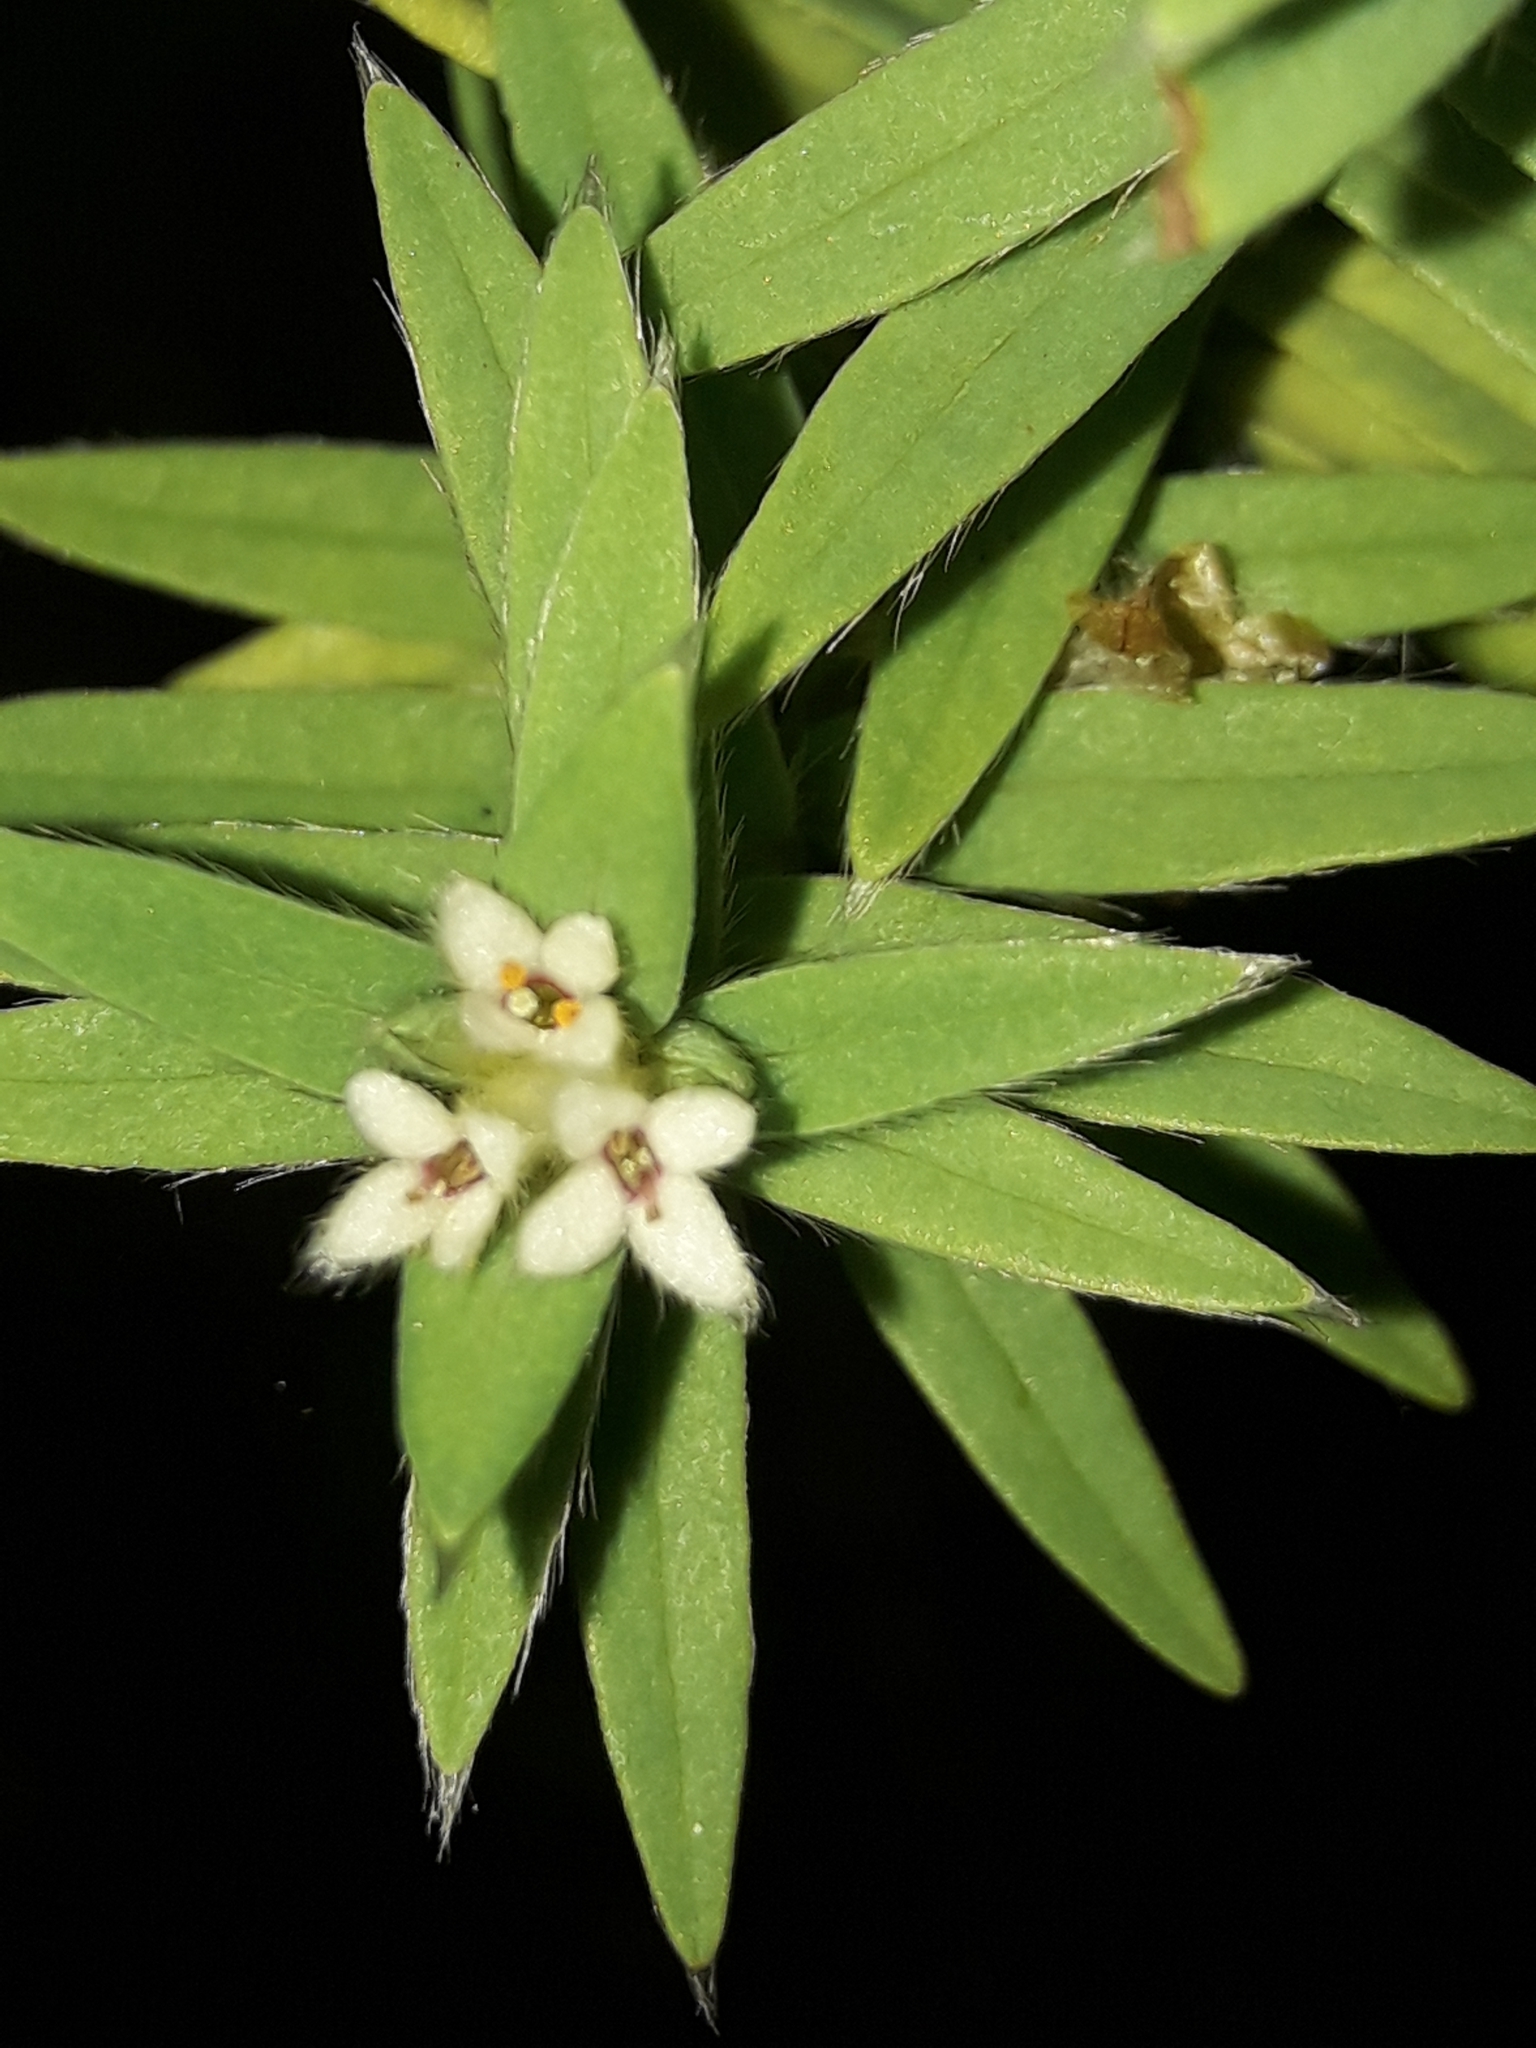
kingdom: Plantae
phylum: Tracheophyta
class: Magnoliopsida
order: Malvales
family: Thymelaeaceae
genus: Pimelea
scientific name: Pimelea tomentosa
